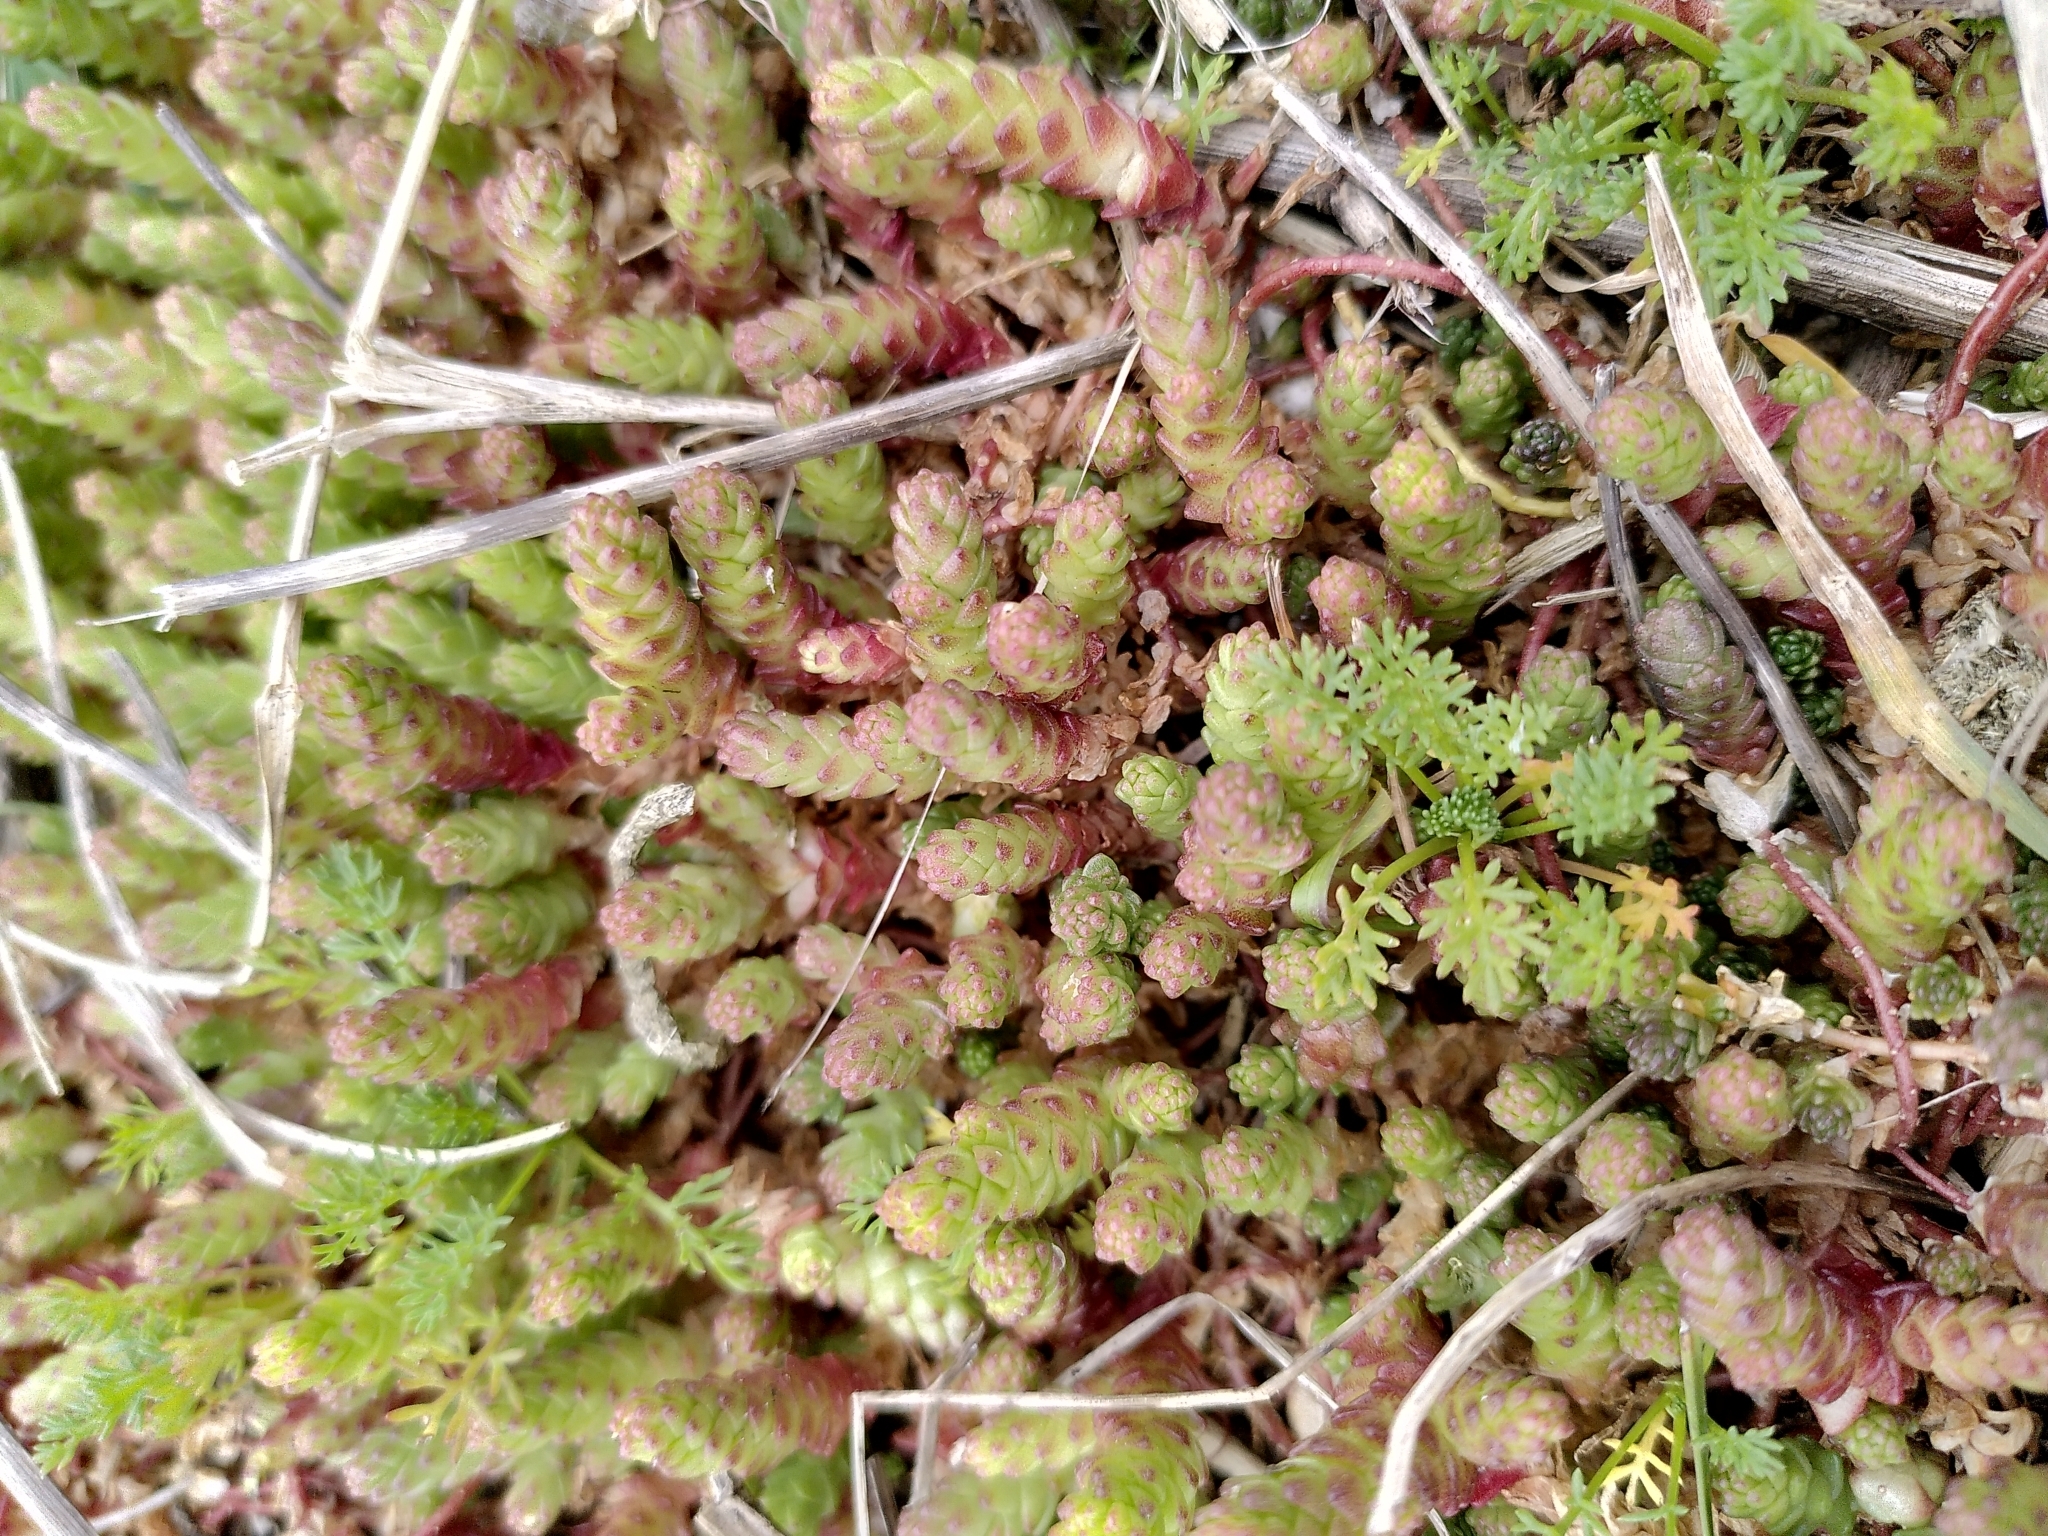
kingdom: Plantae
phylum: Tracheophyta
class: Magnoliopsida
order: Saxifragales
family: Crassulaceae
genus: Sedum
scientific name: Sedum acre
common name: Biting stonecrop
